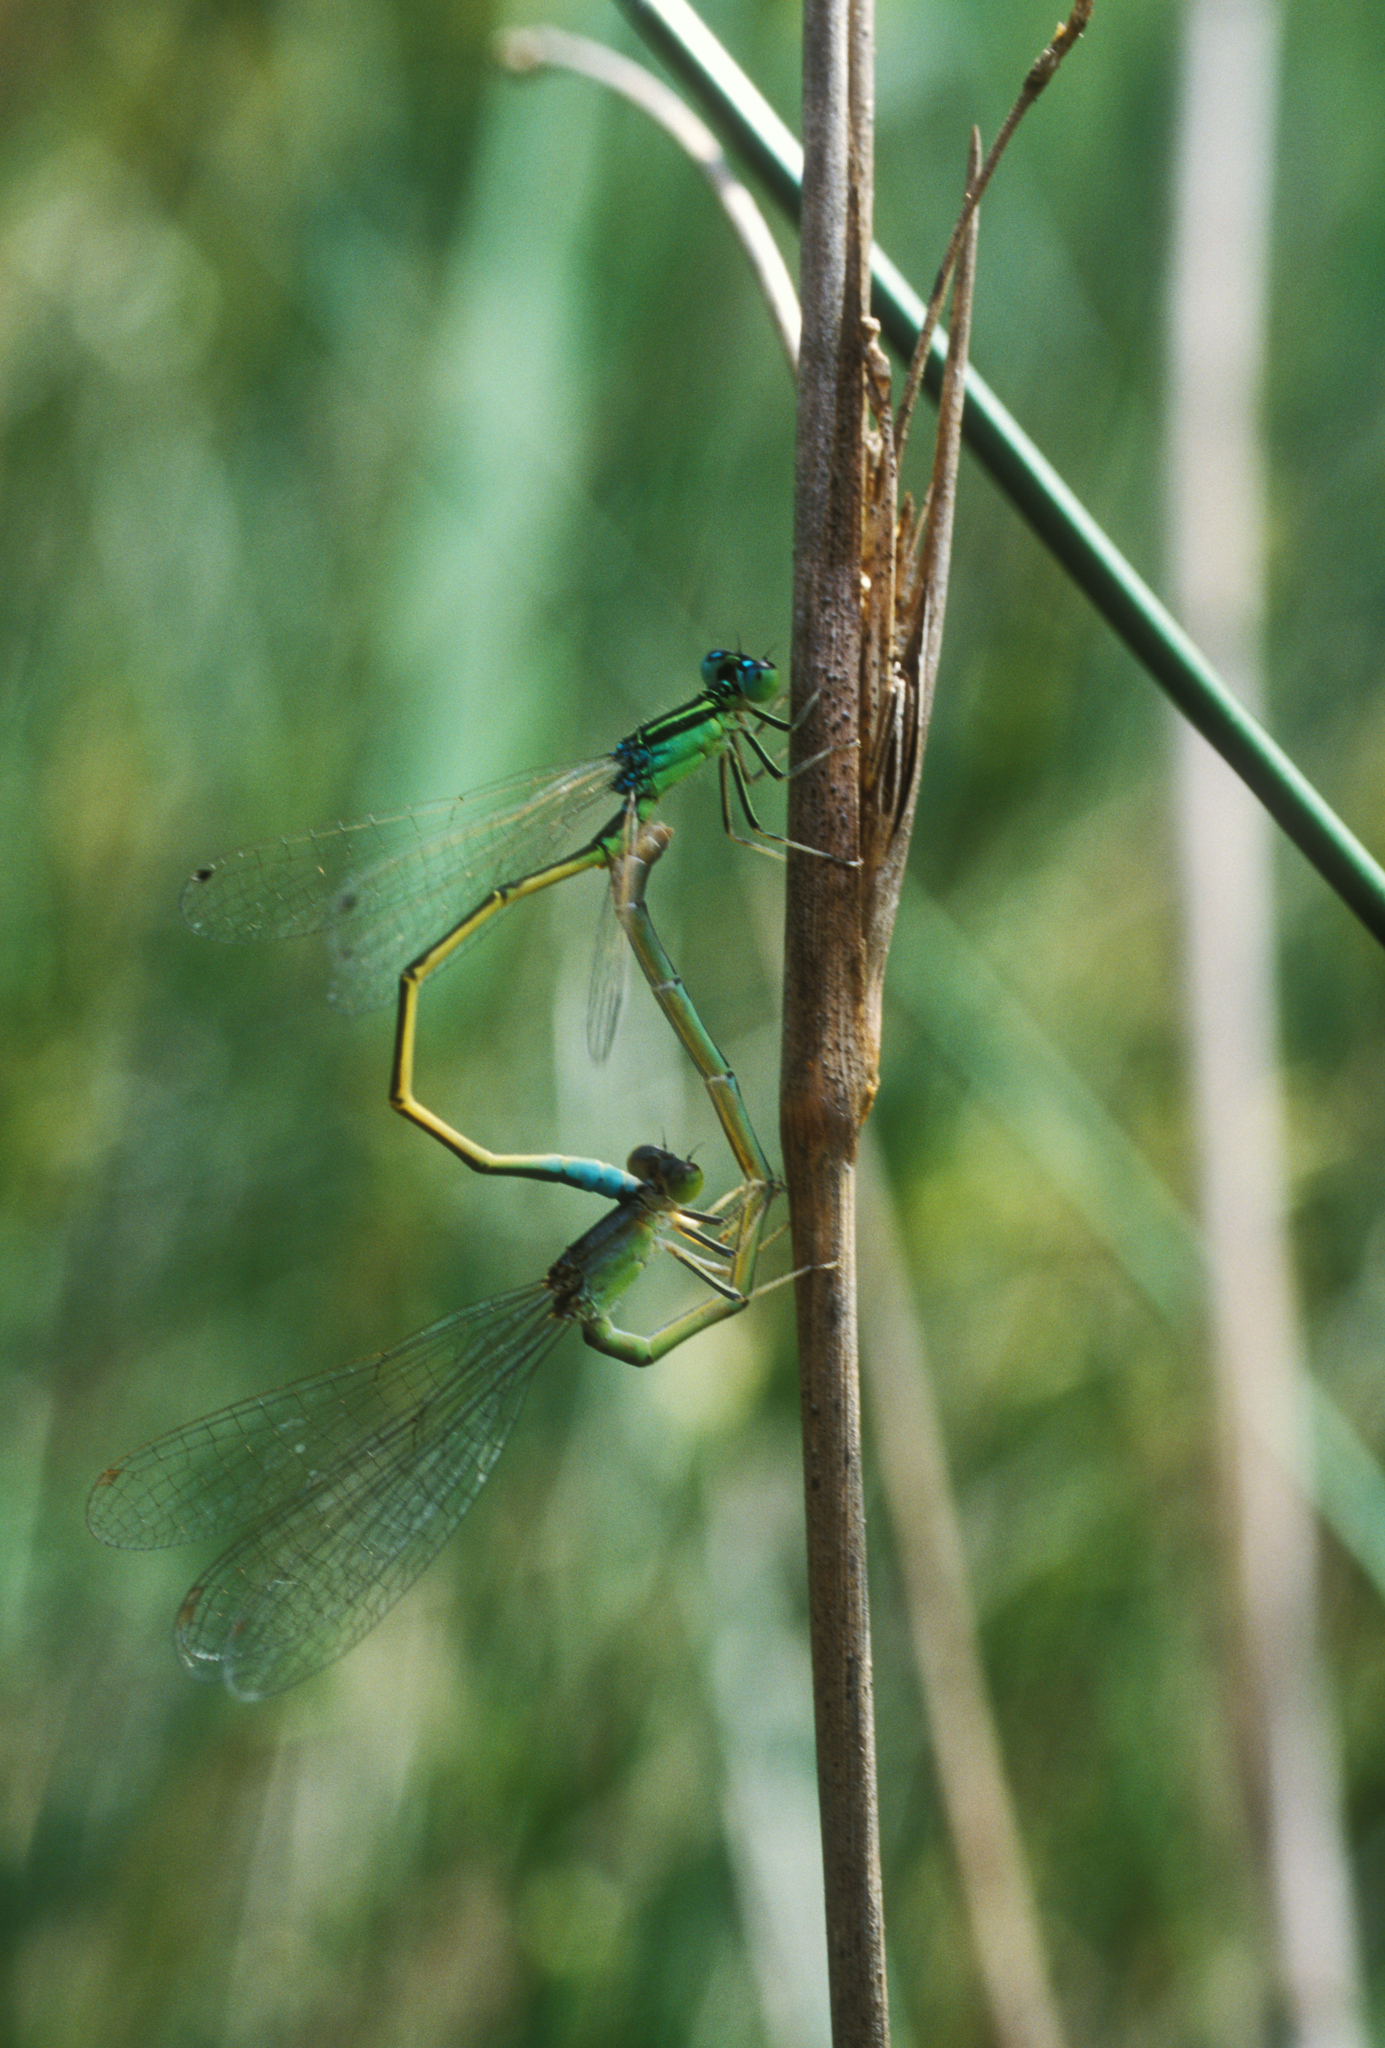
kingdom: Animalia
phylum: Arthropoda
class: Insecta
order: Odonata
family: Coenagrionidae
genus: Ischnura
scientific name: Ischnura pumilio
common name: Scarce blue-tailed damselfly
